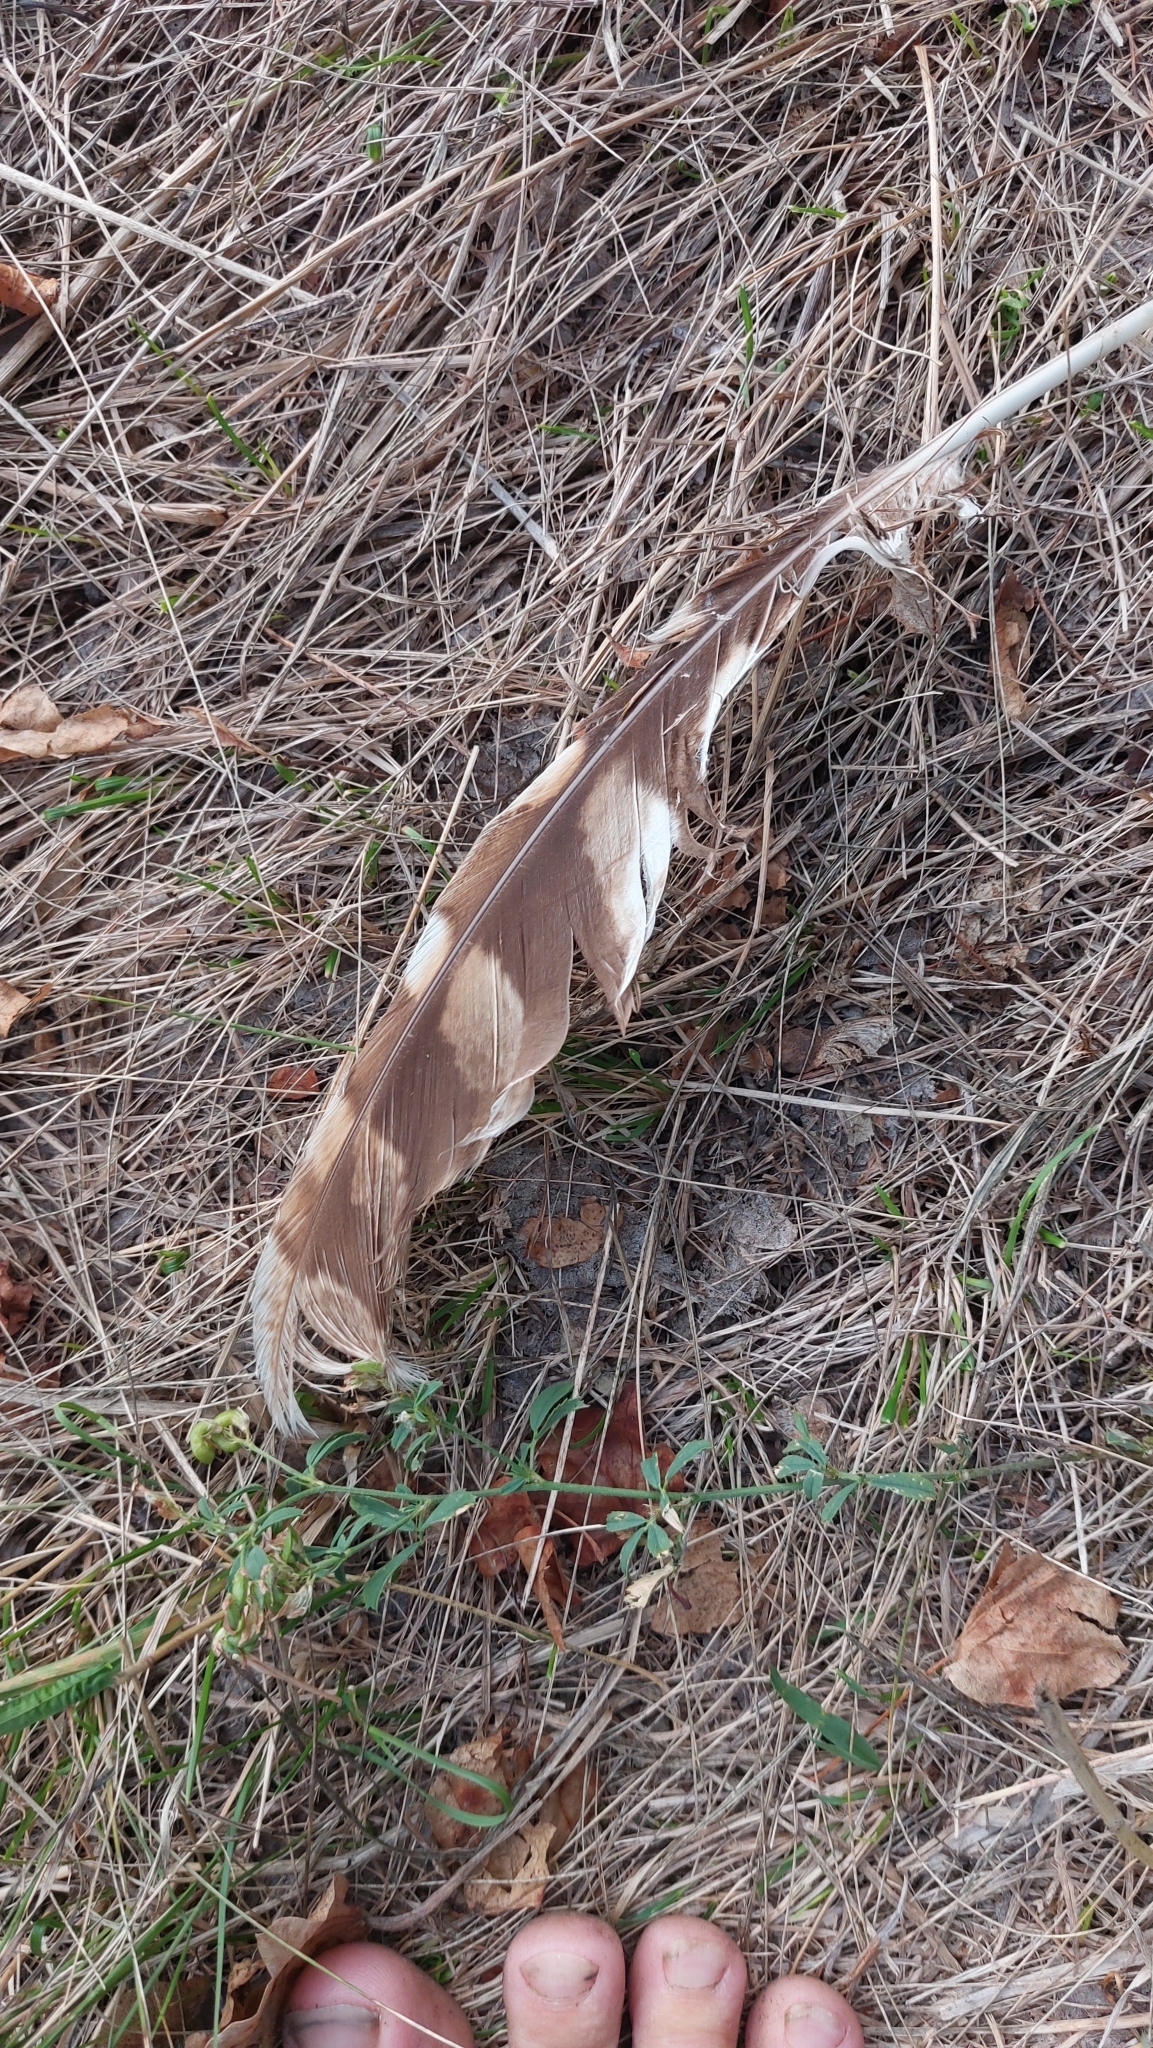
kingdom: Animalia
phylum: Chordata
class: Aves
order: Strigiformes
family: Strigidae
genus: Strix
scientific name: Strix aluco
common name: Tawny owl
